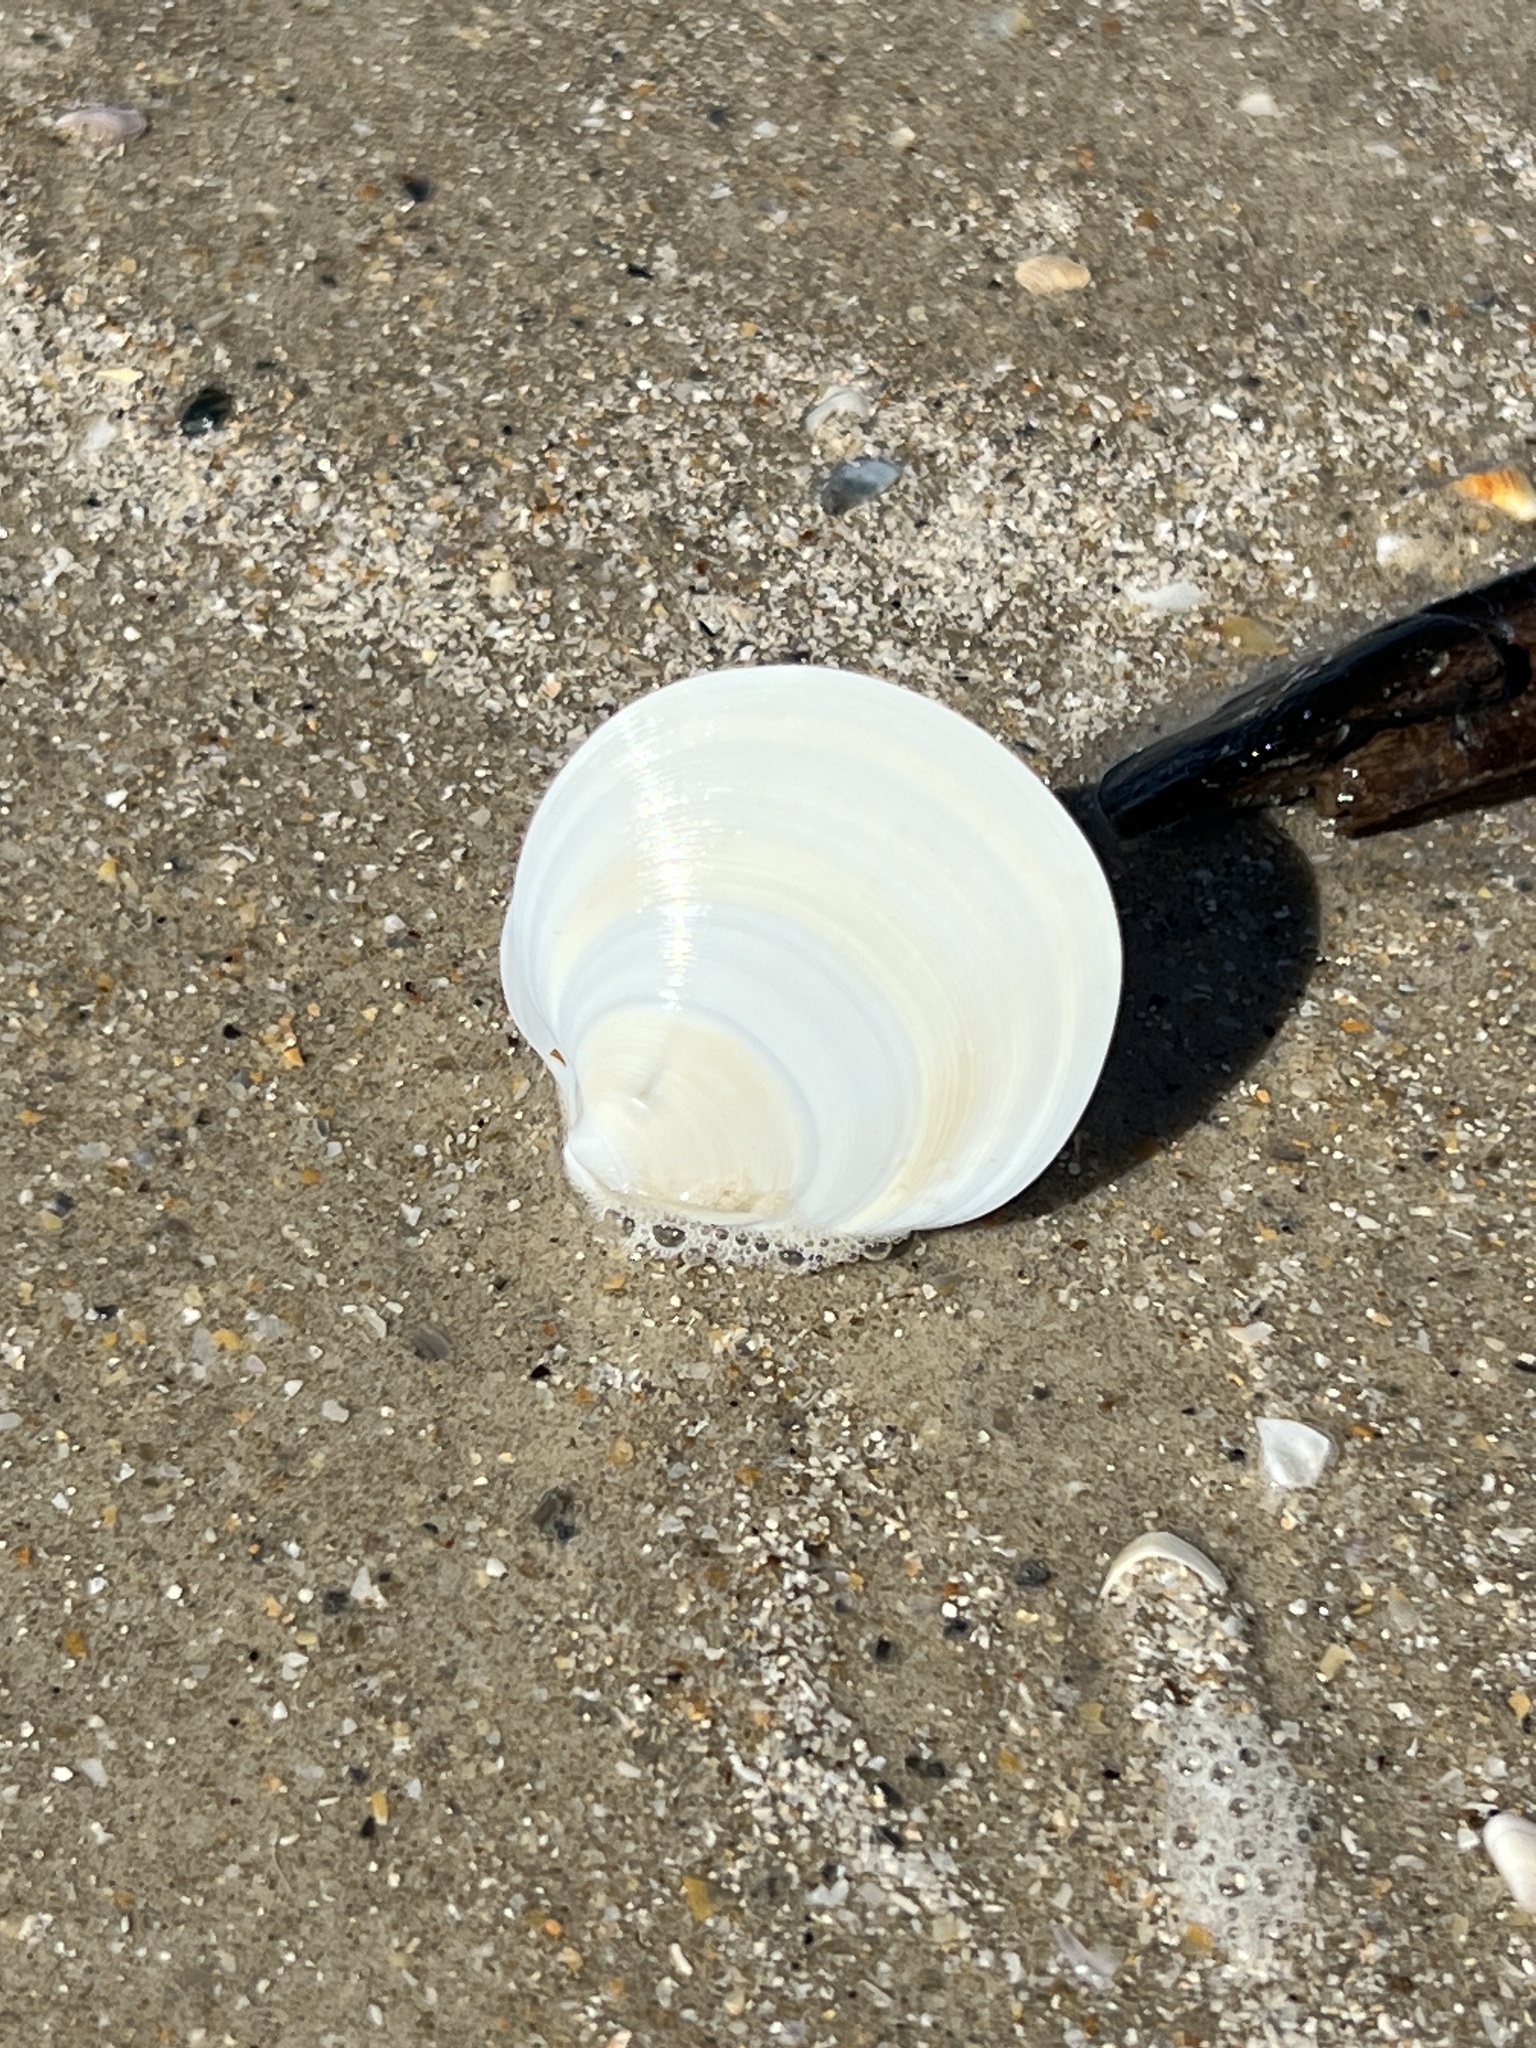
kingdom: Animalia
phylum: Mollusca
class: Bivalvia
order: Venerida
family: Veneridae
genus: Dosinia
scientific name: Dosinia discus
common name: Disk dosinia
